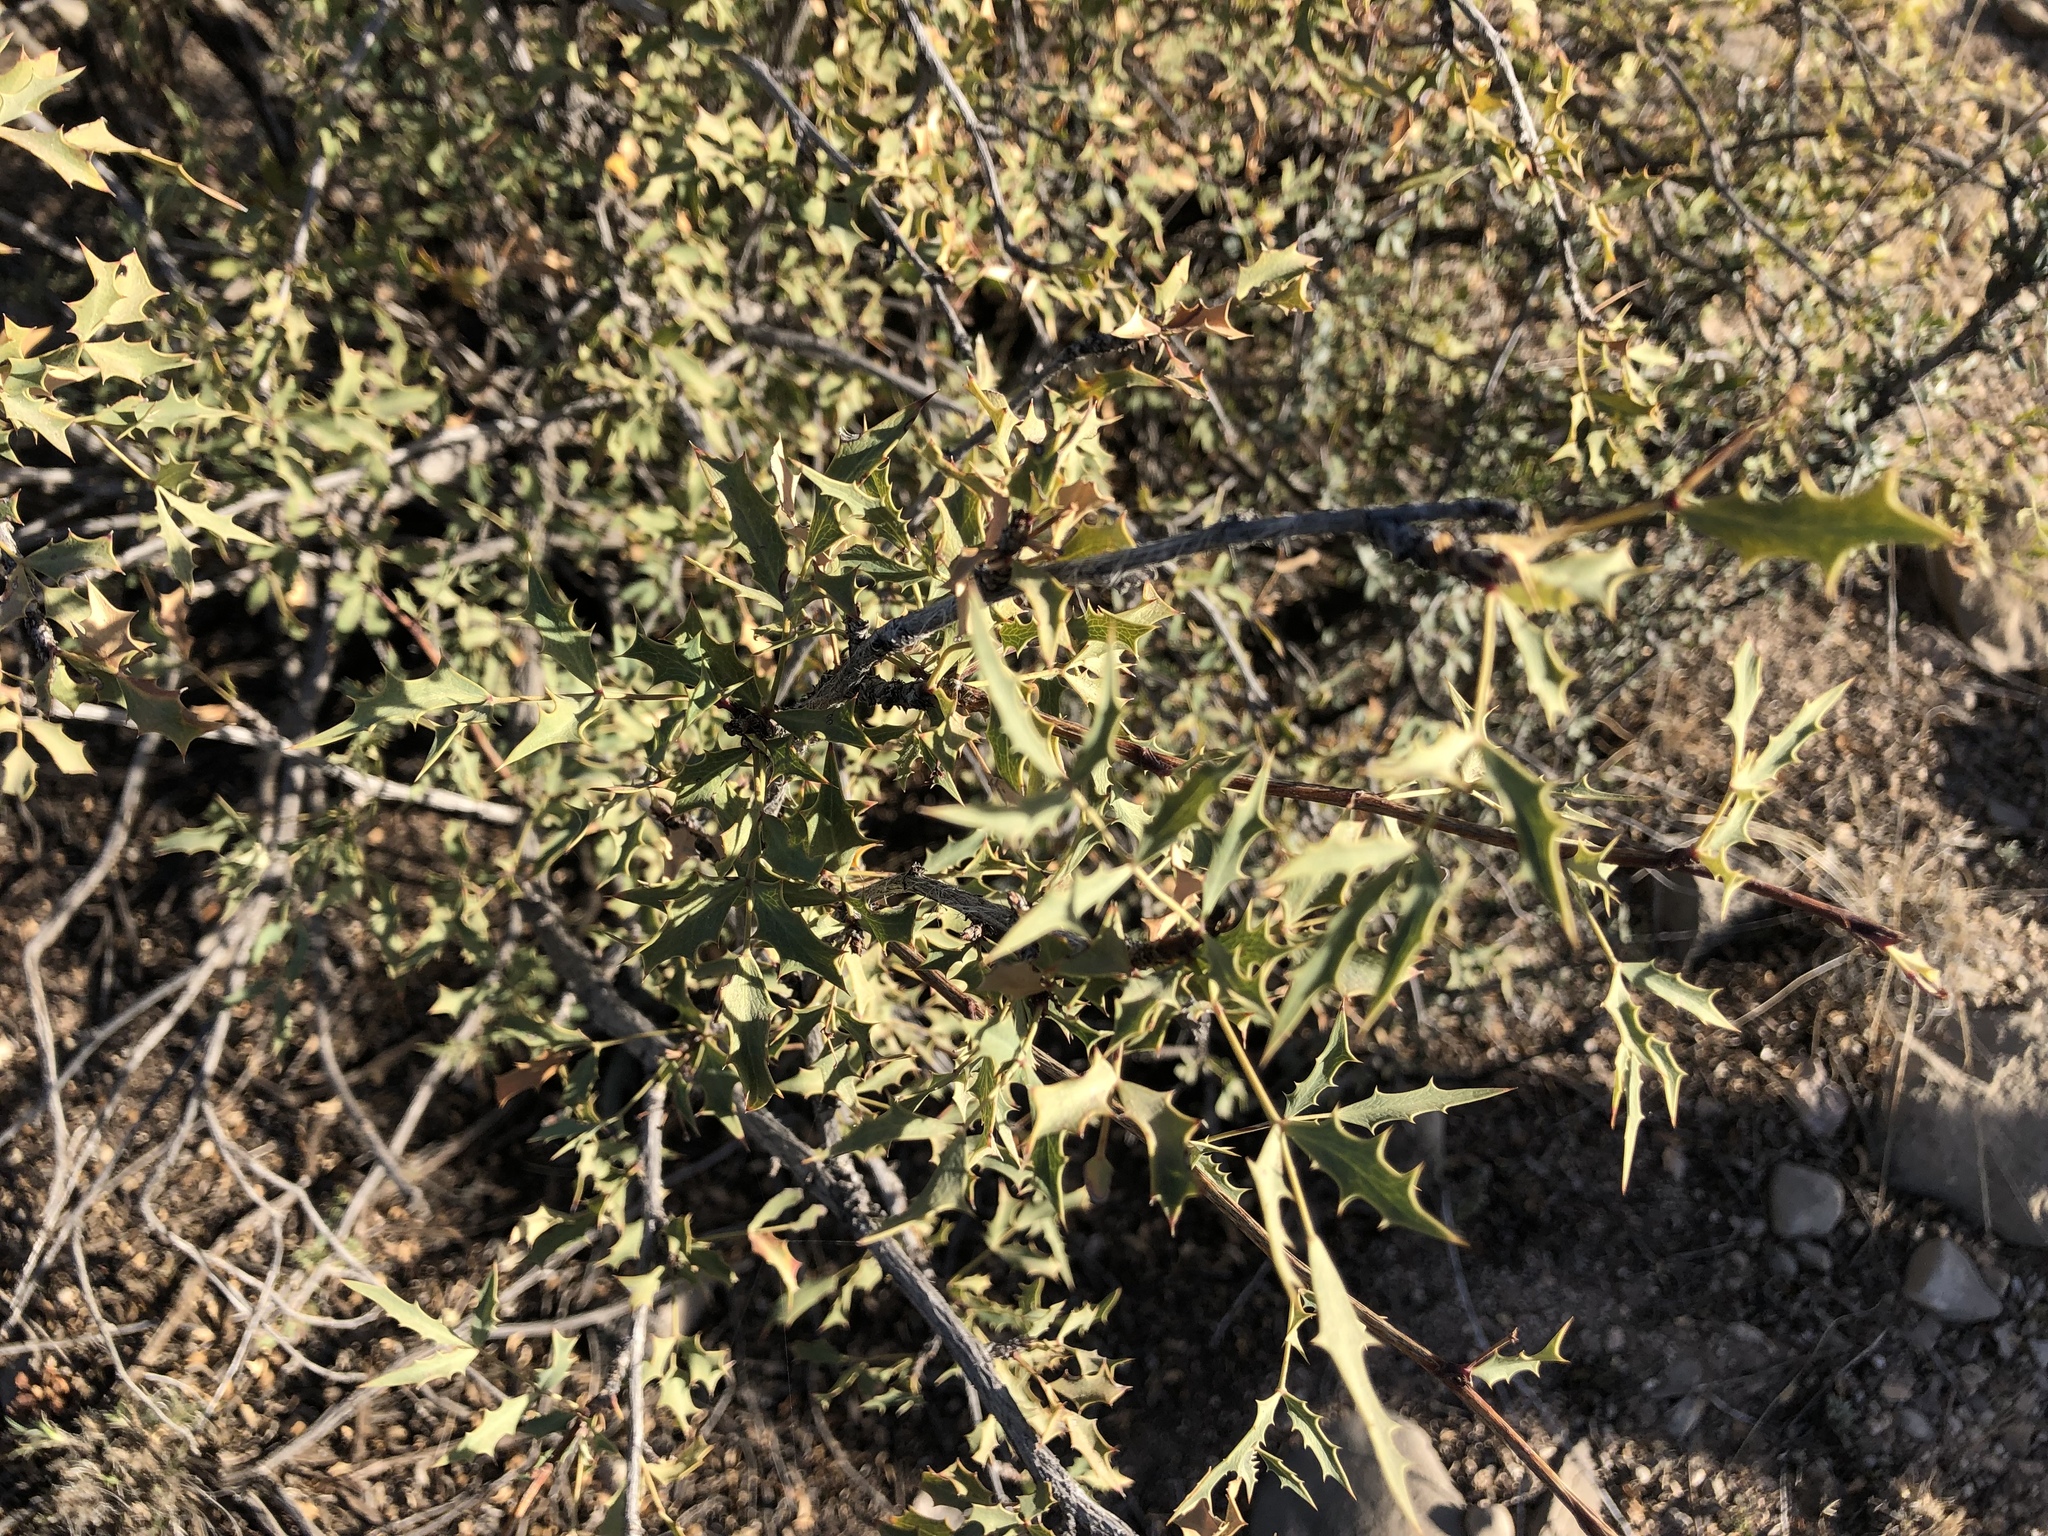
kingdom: Plantae
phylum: Tracheophyta
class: Magnoliopsida
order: Ranunculales
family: Berberidaceae
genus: Alloberberis
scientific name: Alloberberis haematocarpa
